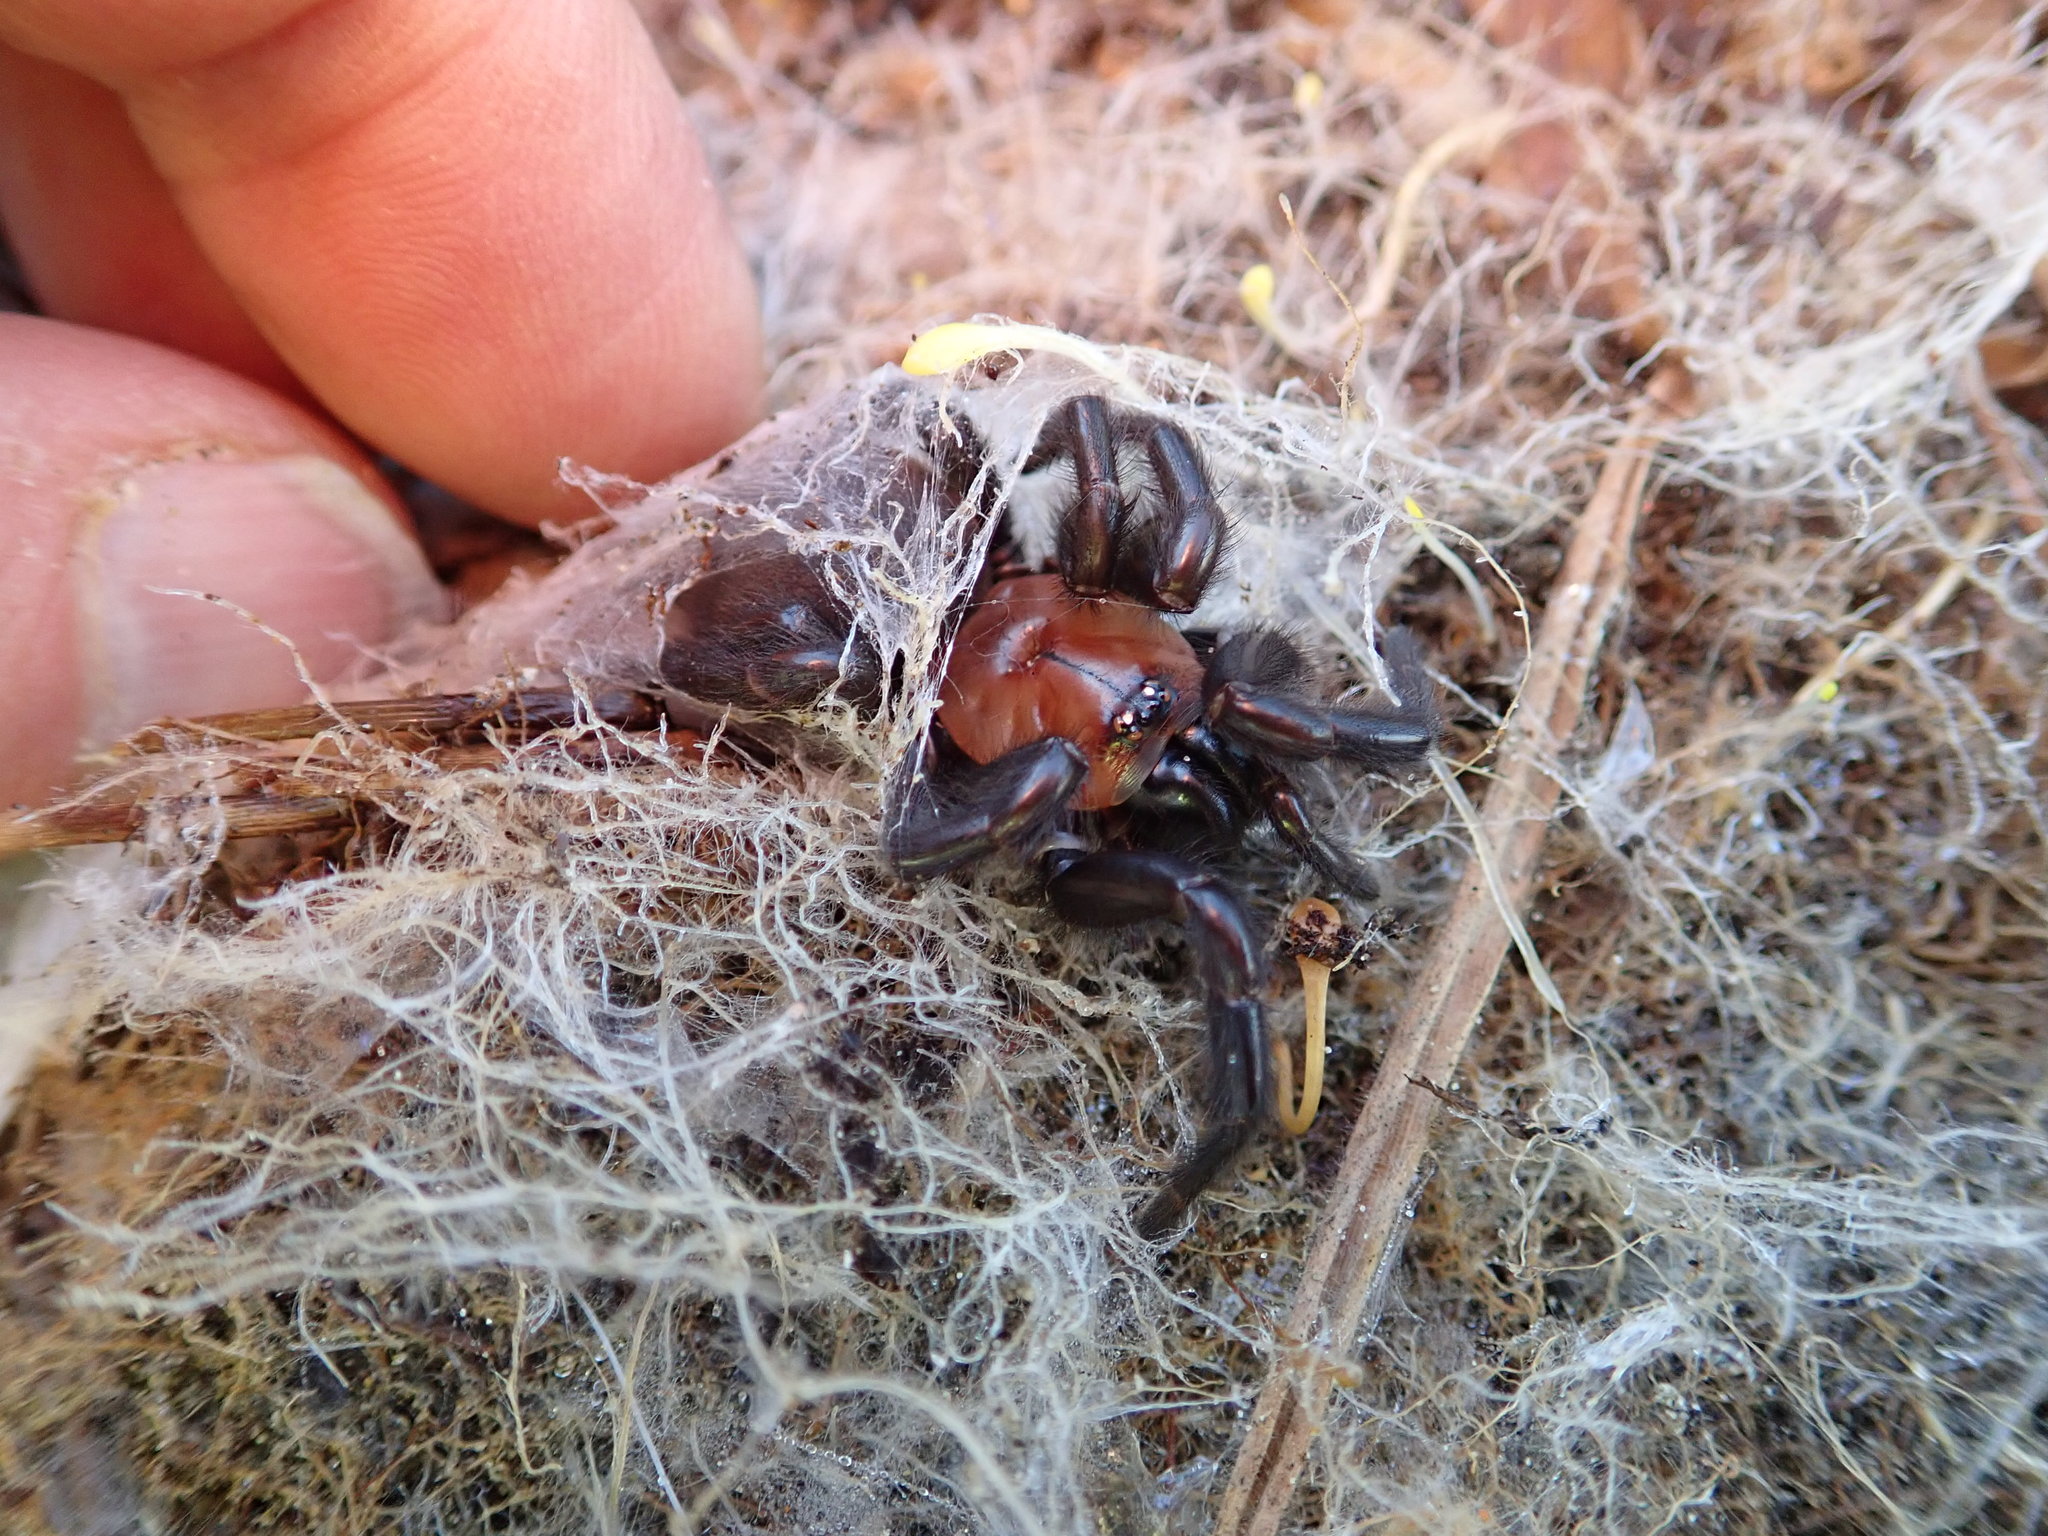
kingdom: Animalia
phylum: Arthropoda
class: Arachnida
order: Araneae
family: Porrhothelidae
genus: Porrhothele
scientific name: Porrhothele antipodiana
